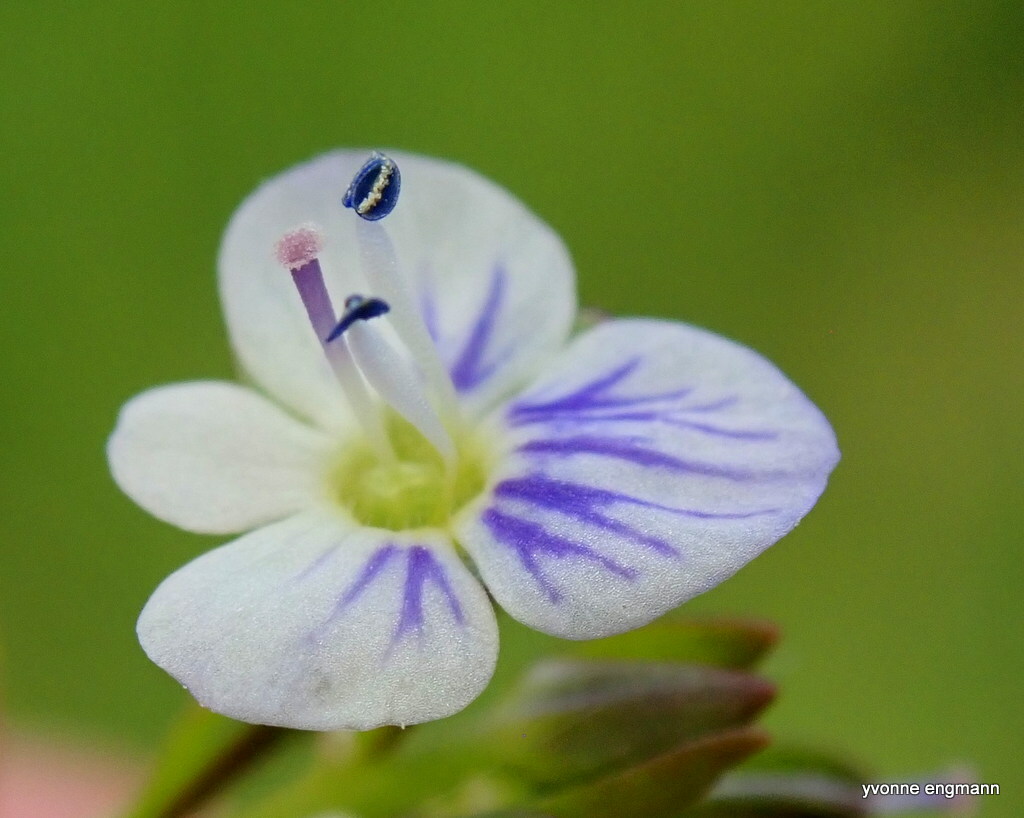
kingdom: Plantae
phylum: Tracheophyta
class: Magnoliopsida
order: Lamiales
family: Plantaginaceae
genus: Veronica
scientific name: Veronica serpyllifolia
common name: Thyme-leaved speedwell
